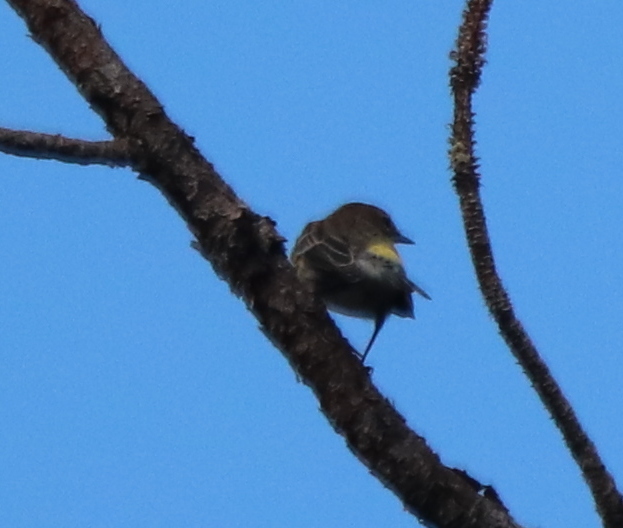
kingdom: Animalia
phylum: Chordata
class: Aves
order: Passeriformes
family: Parulidae
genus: Setophaga
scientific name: Setophaga coronata
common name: Myrtle warbler
